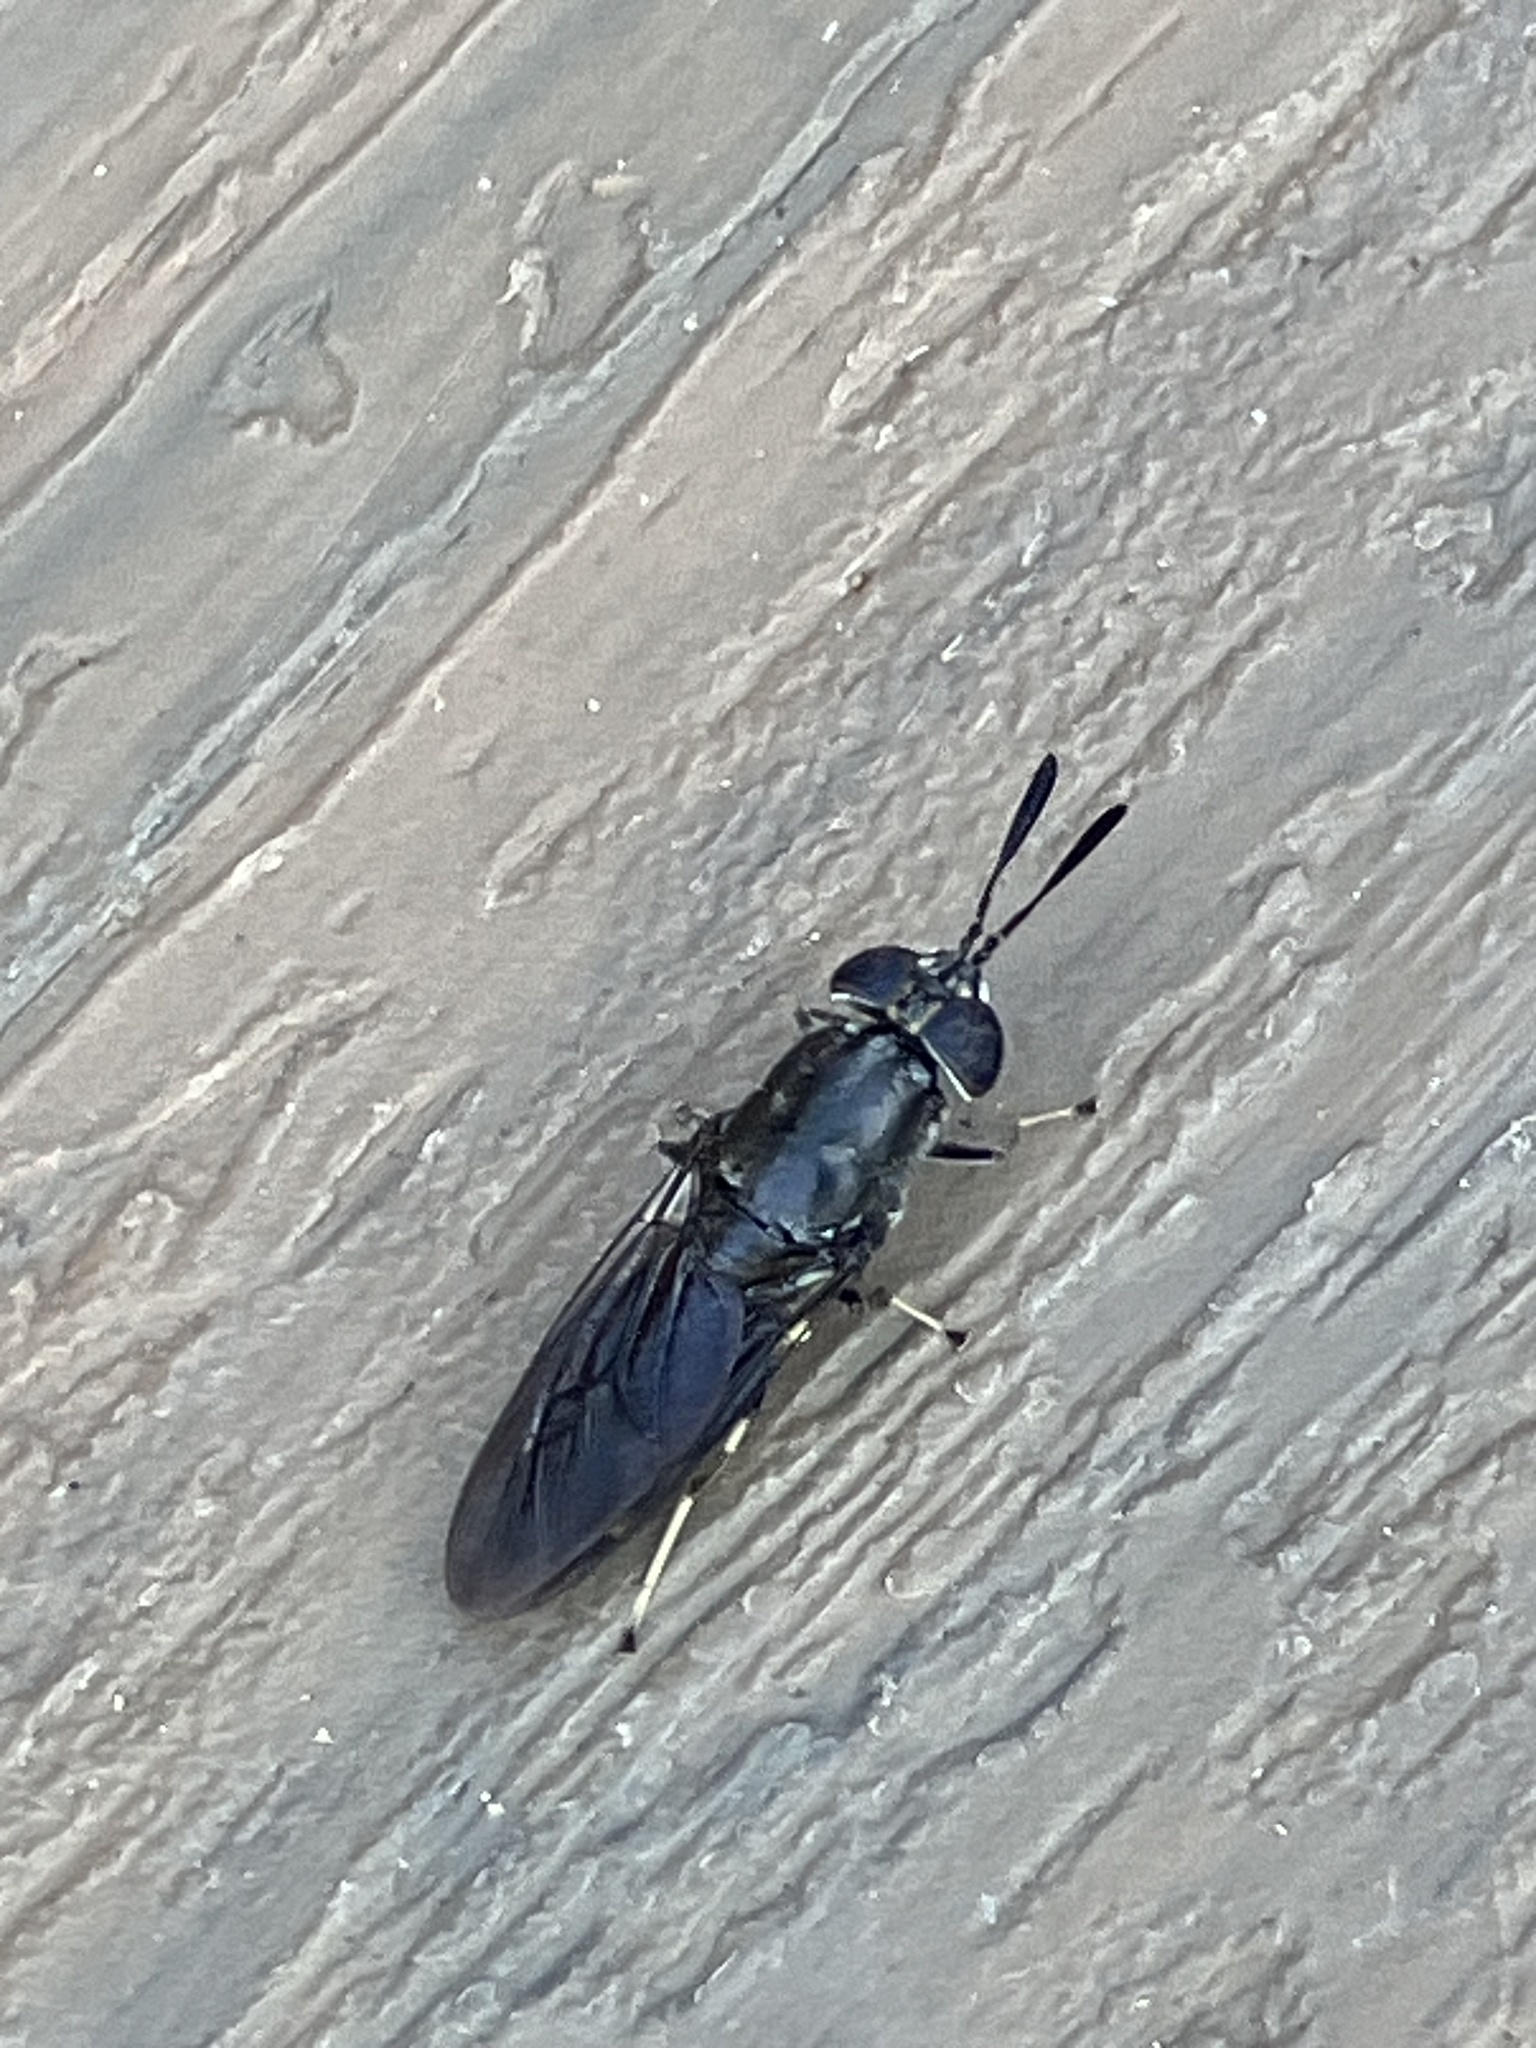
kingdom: Animalia
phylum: Arthropoda
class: Insecta
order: Diptera
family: Stratiomyidae
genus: Hermetia
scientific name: Hermetia sexmaculata
